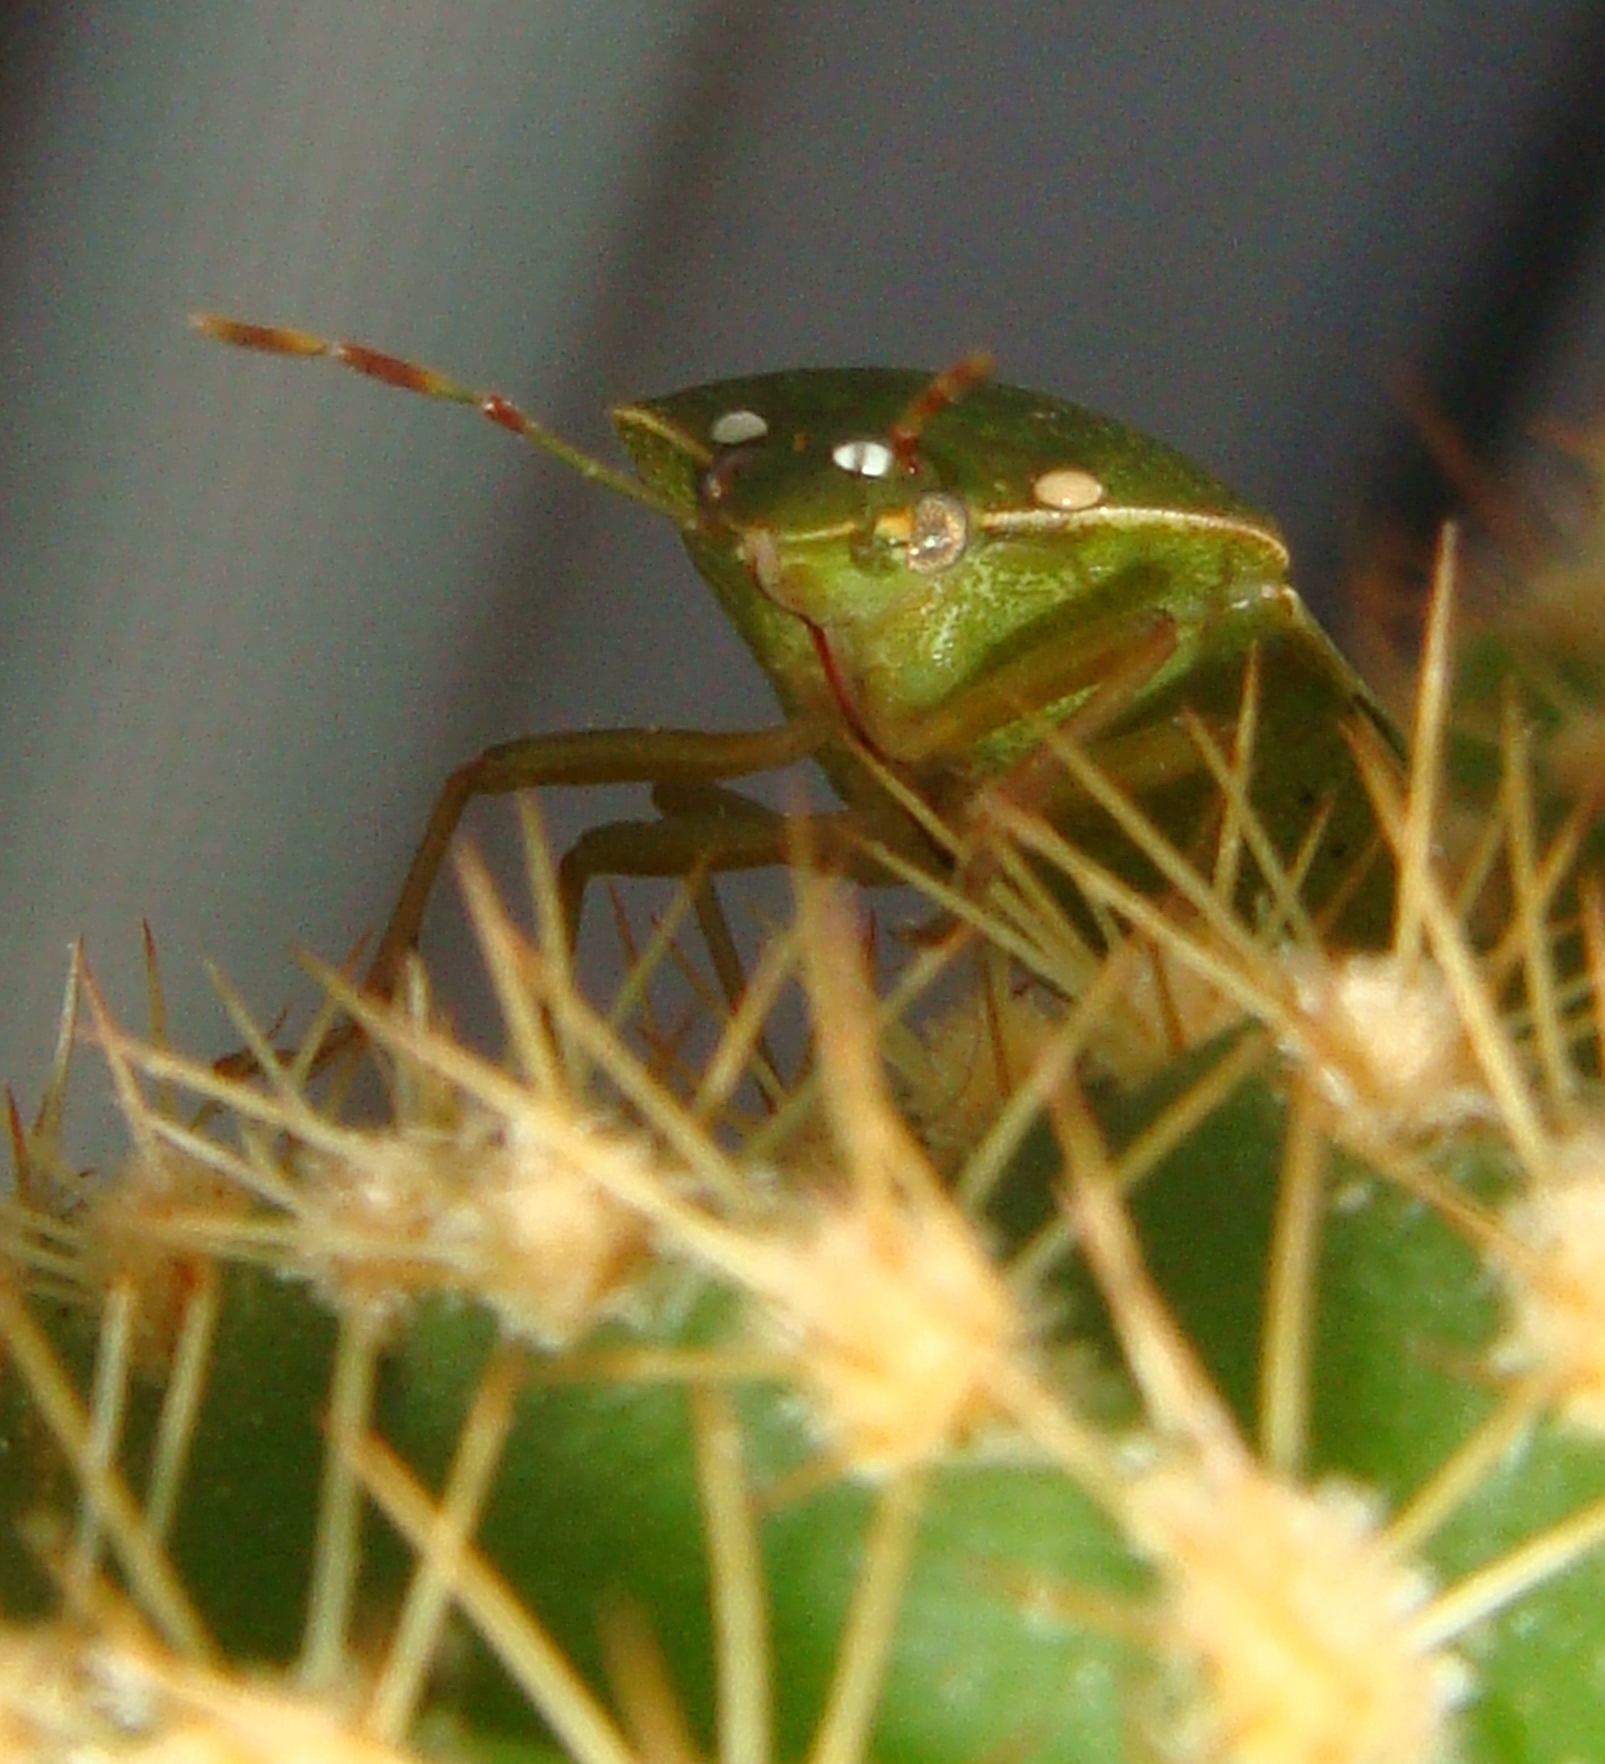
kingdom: Animalia
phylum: Arthropoda
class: Insecta
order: Hemiptera
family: Pentatomidae
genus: Nezara
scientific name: Nezara viridula
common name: Southern green stink bug
